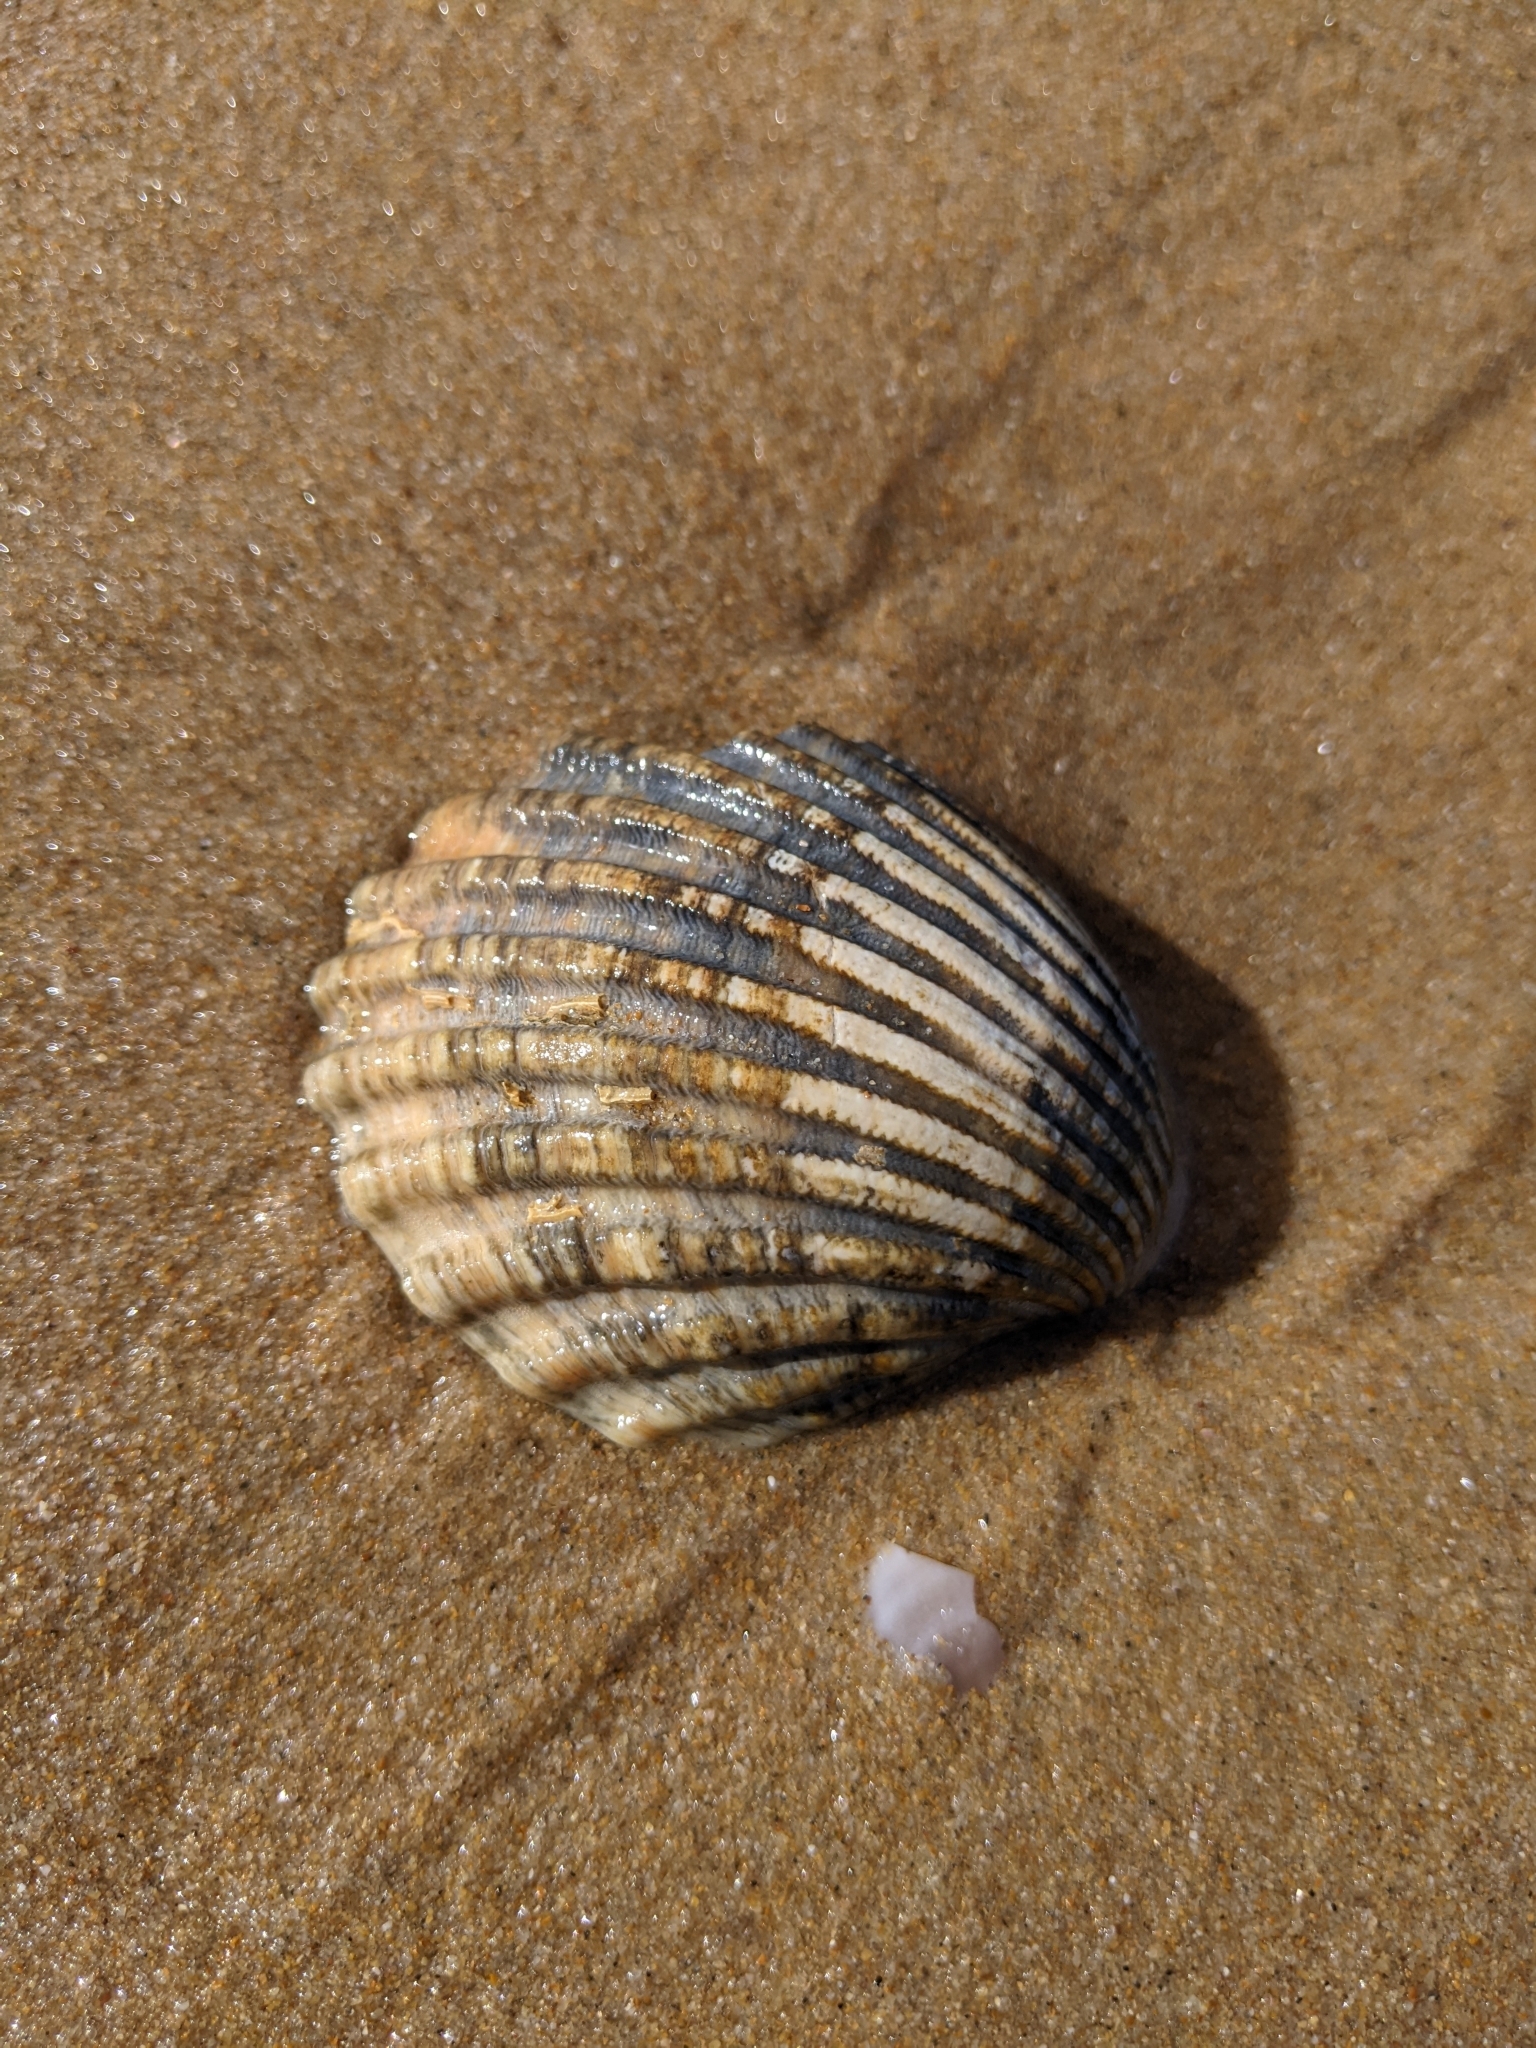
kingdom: Animalia
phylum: Mollusca
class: Bivalvia
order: Cardiida
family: Cardiidae
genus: Acanthocardia
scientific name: Acanthocardia tuberculata
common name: Rough cockle
